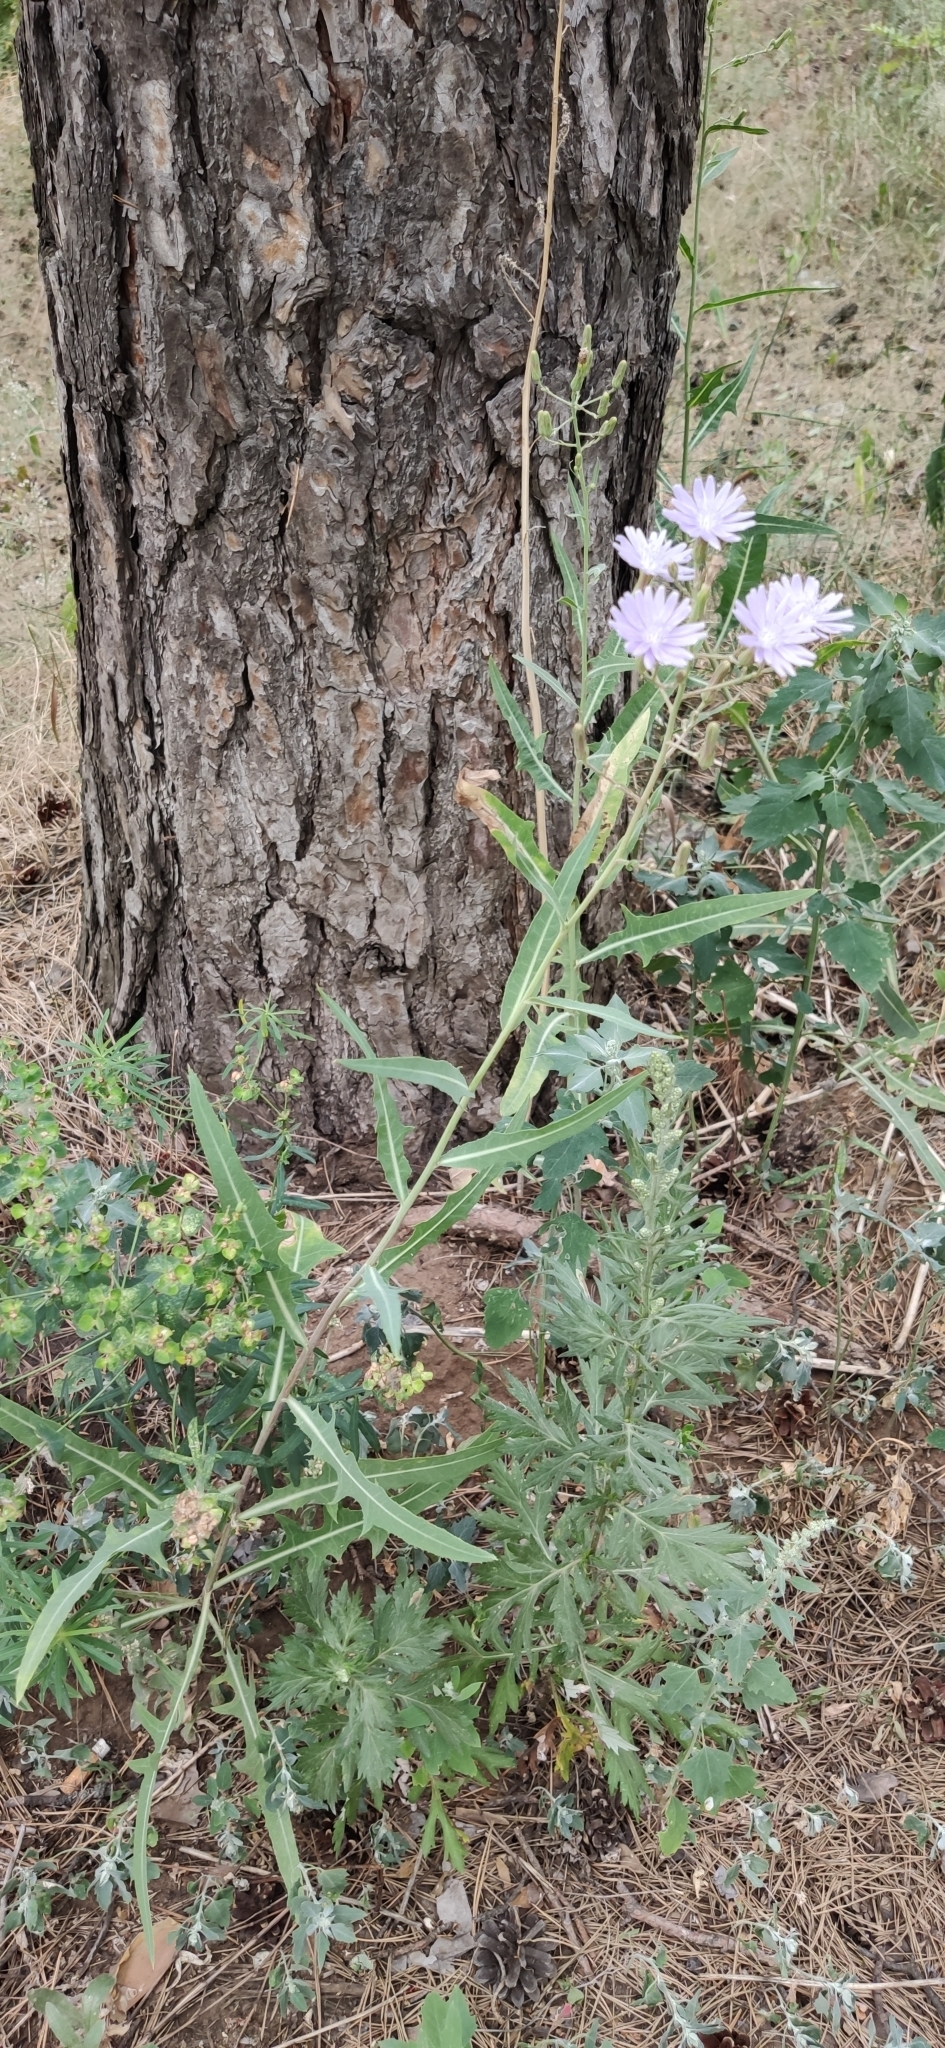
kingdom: Plantae
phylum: Tracheophyta
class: Magnoliopsida
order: Asterales
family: Asteraceae
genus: Lactuca
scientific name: Lactuca tatarica
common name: Blue lettuce
